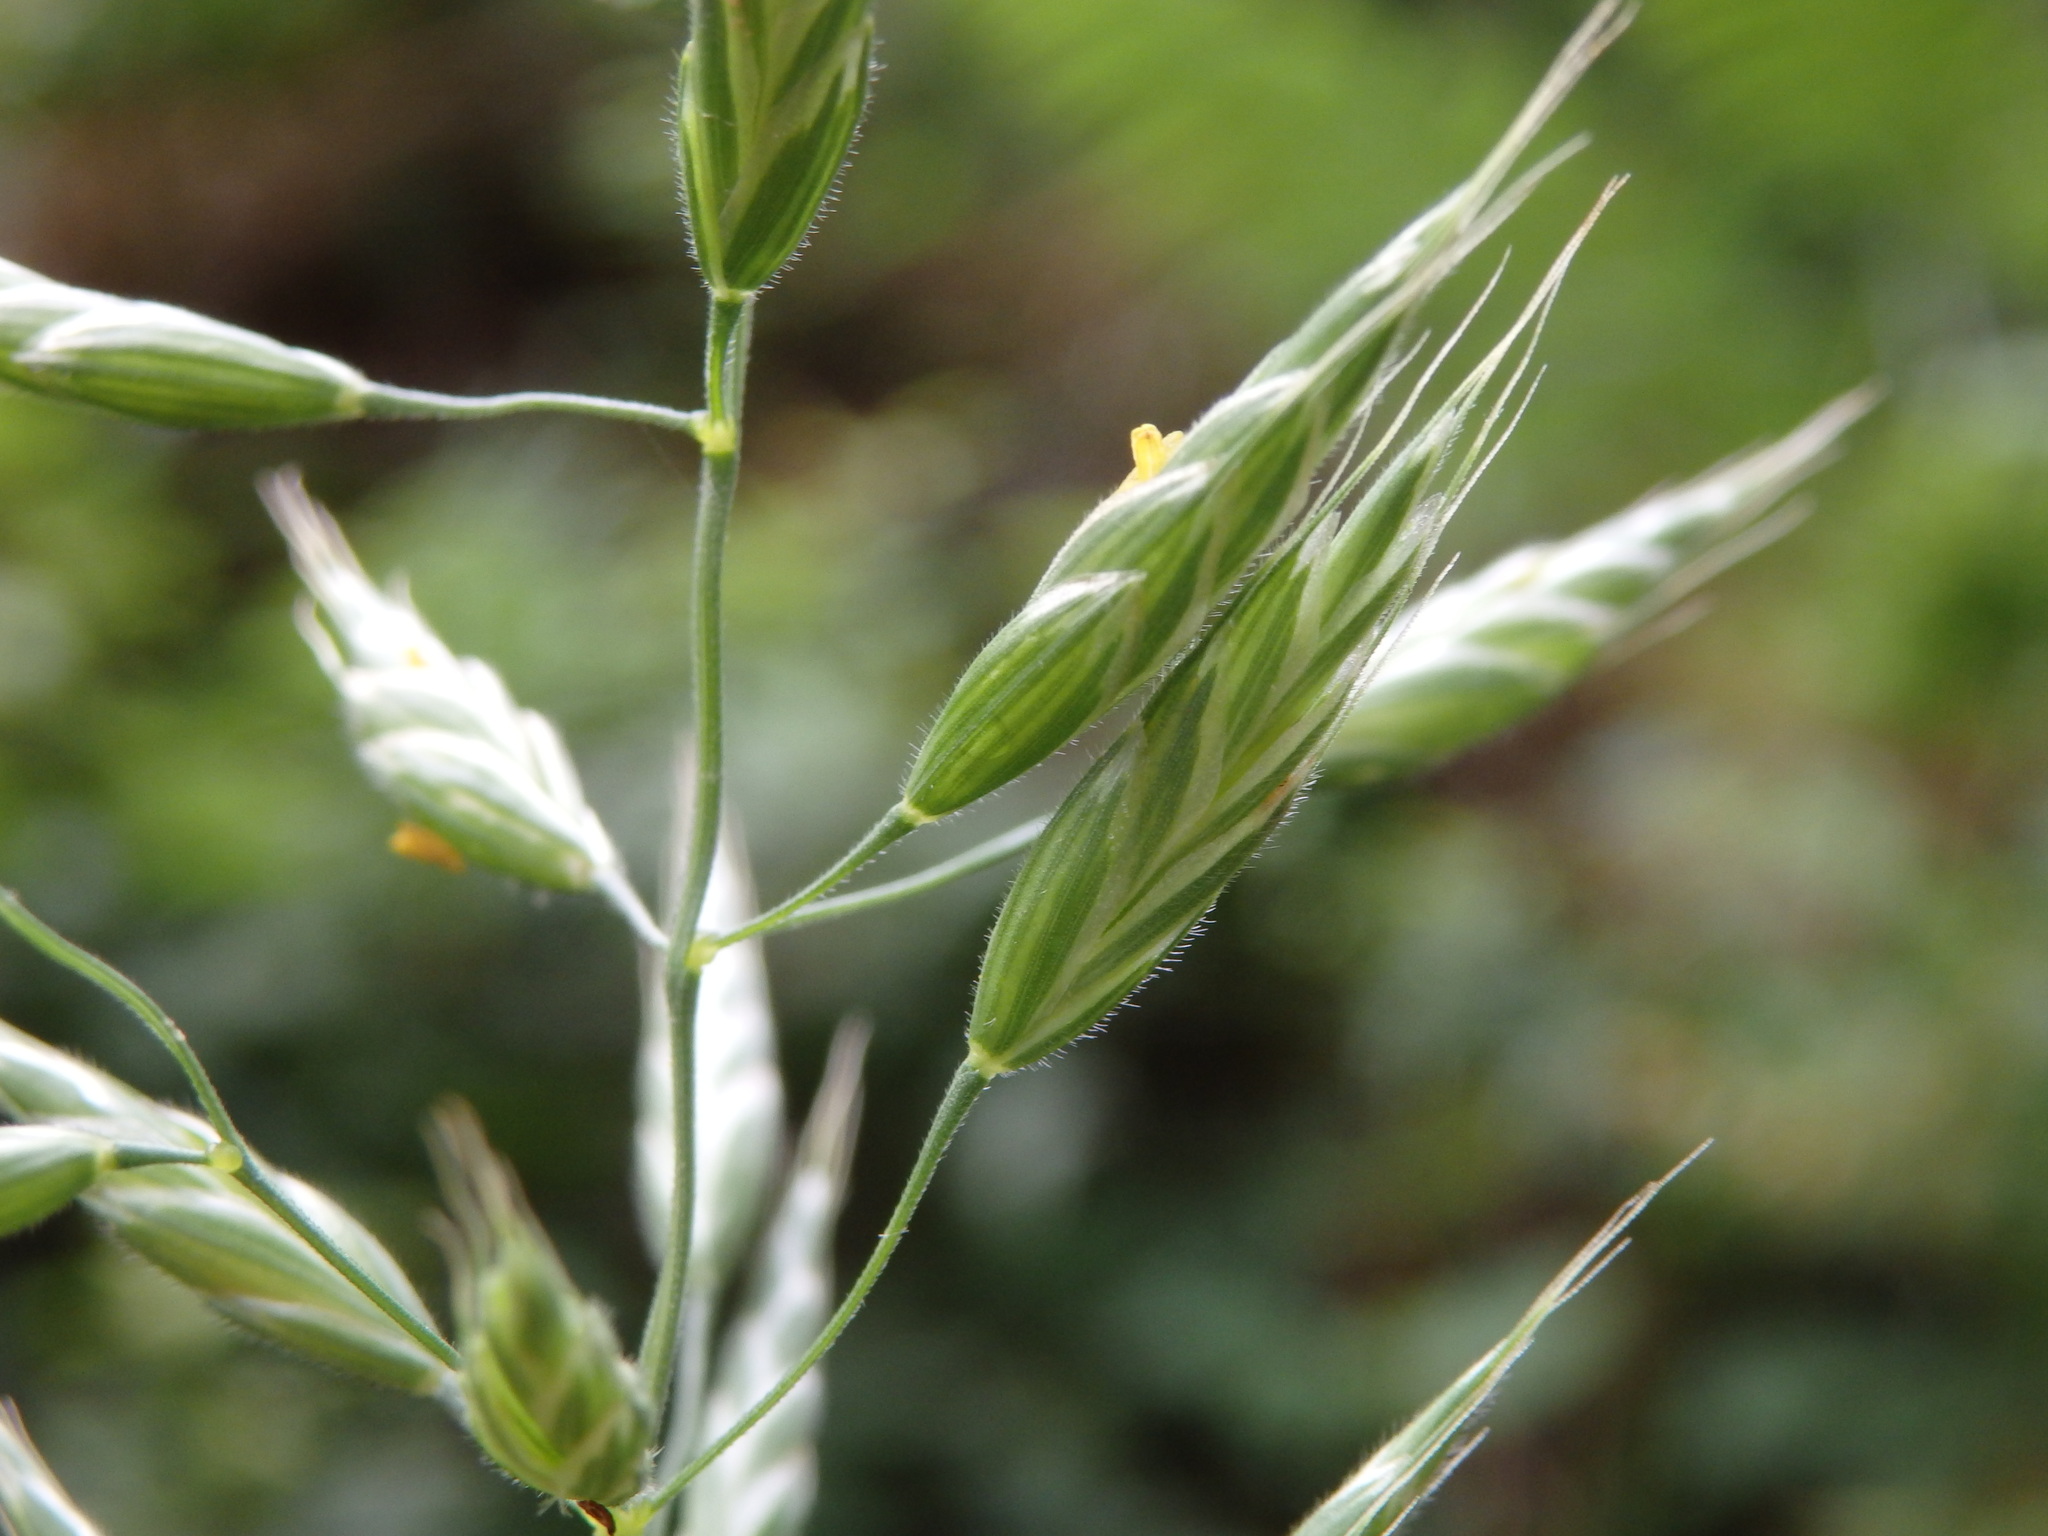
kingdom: Plantae
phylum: Tracheophyta
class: Liliopsida
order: Poales
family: Poaceae
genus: Bromus
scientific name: Bromus hordeaceus
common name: Soft brome
